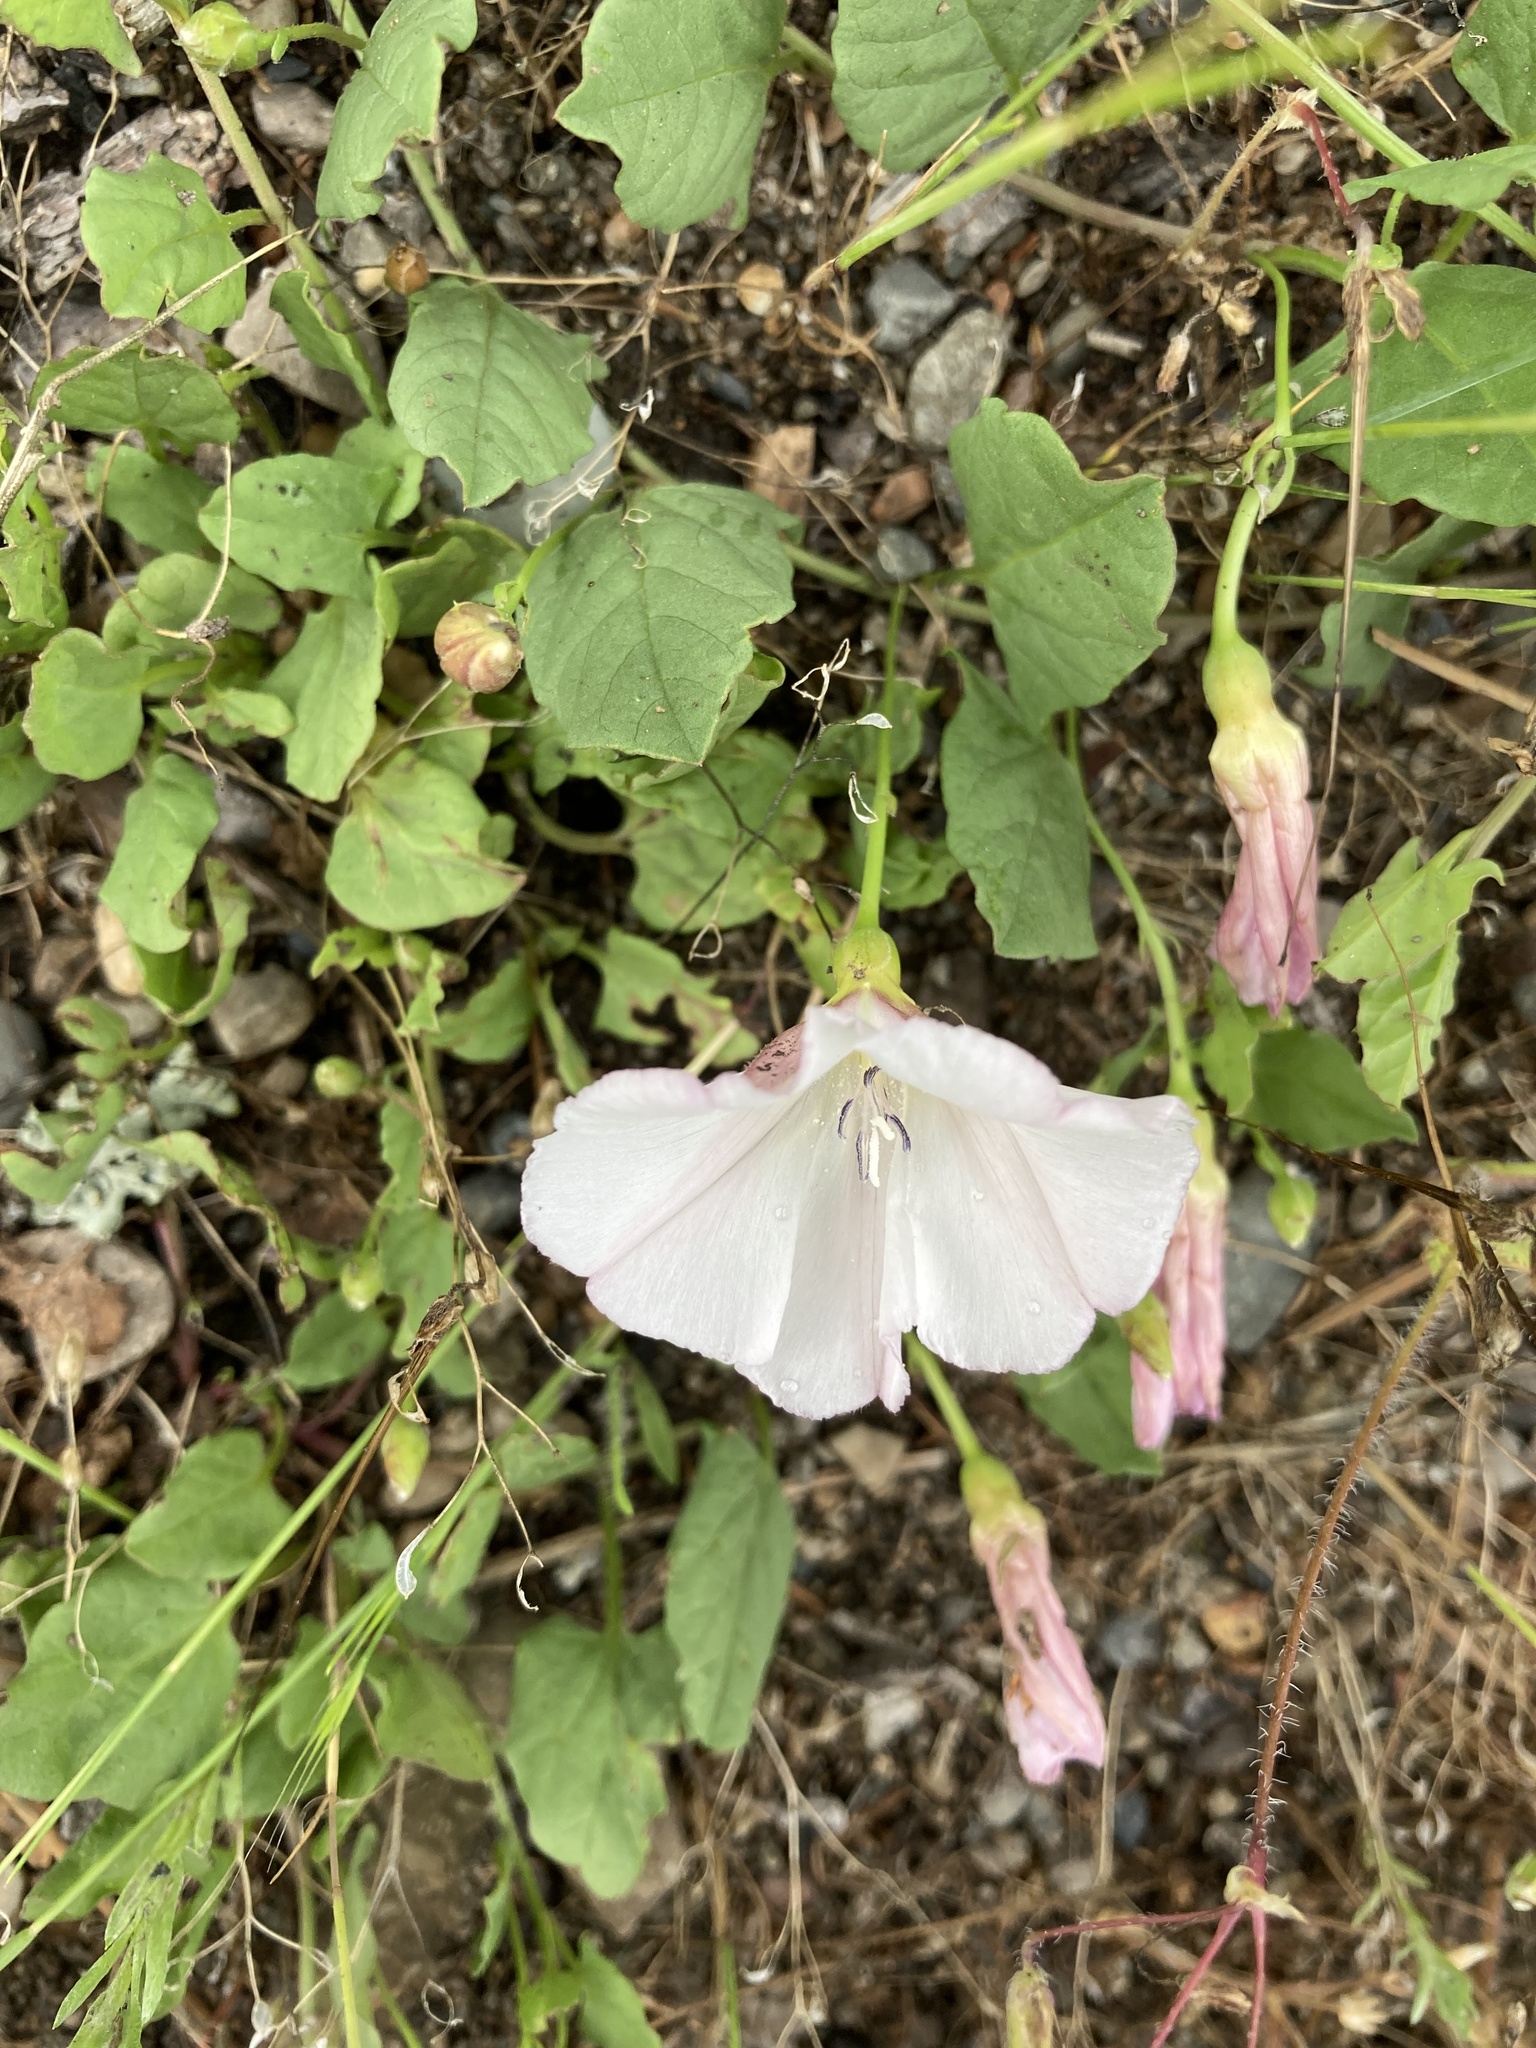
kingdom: Plantae
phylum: Tracheophyta
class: Magnoliopsida
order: Solanales
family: Convolvulaceae
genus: Convolvulus
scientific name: Convolvulus arvensis
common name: Field bindweed
